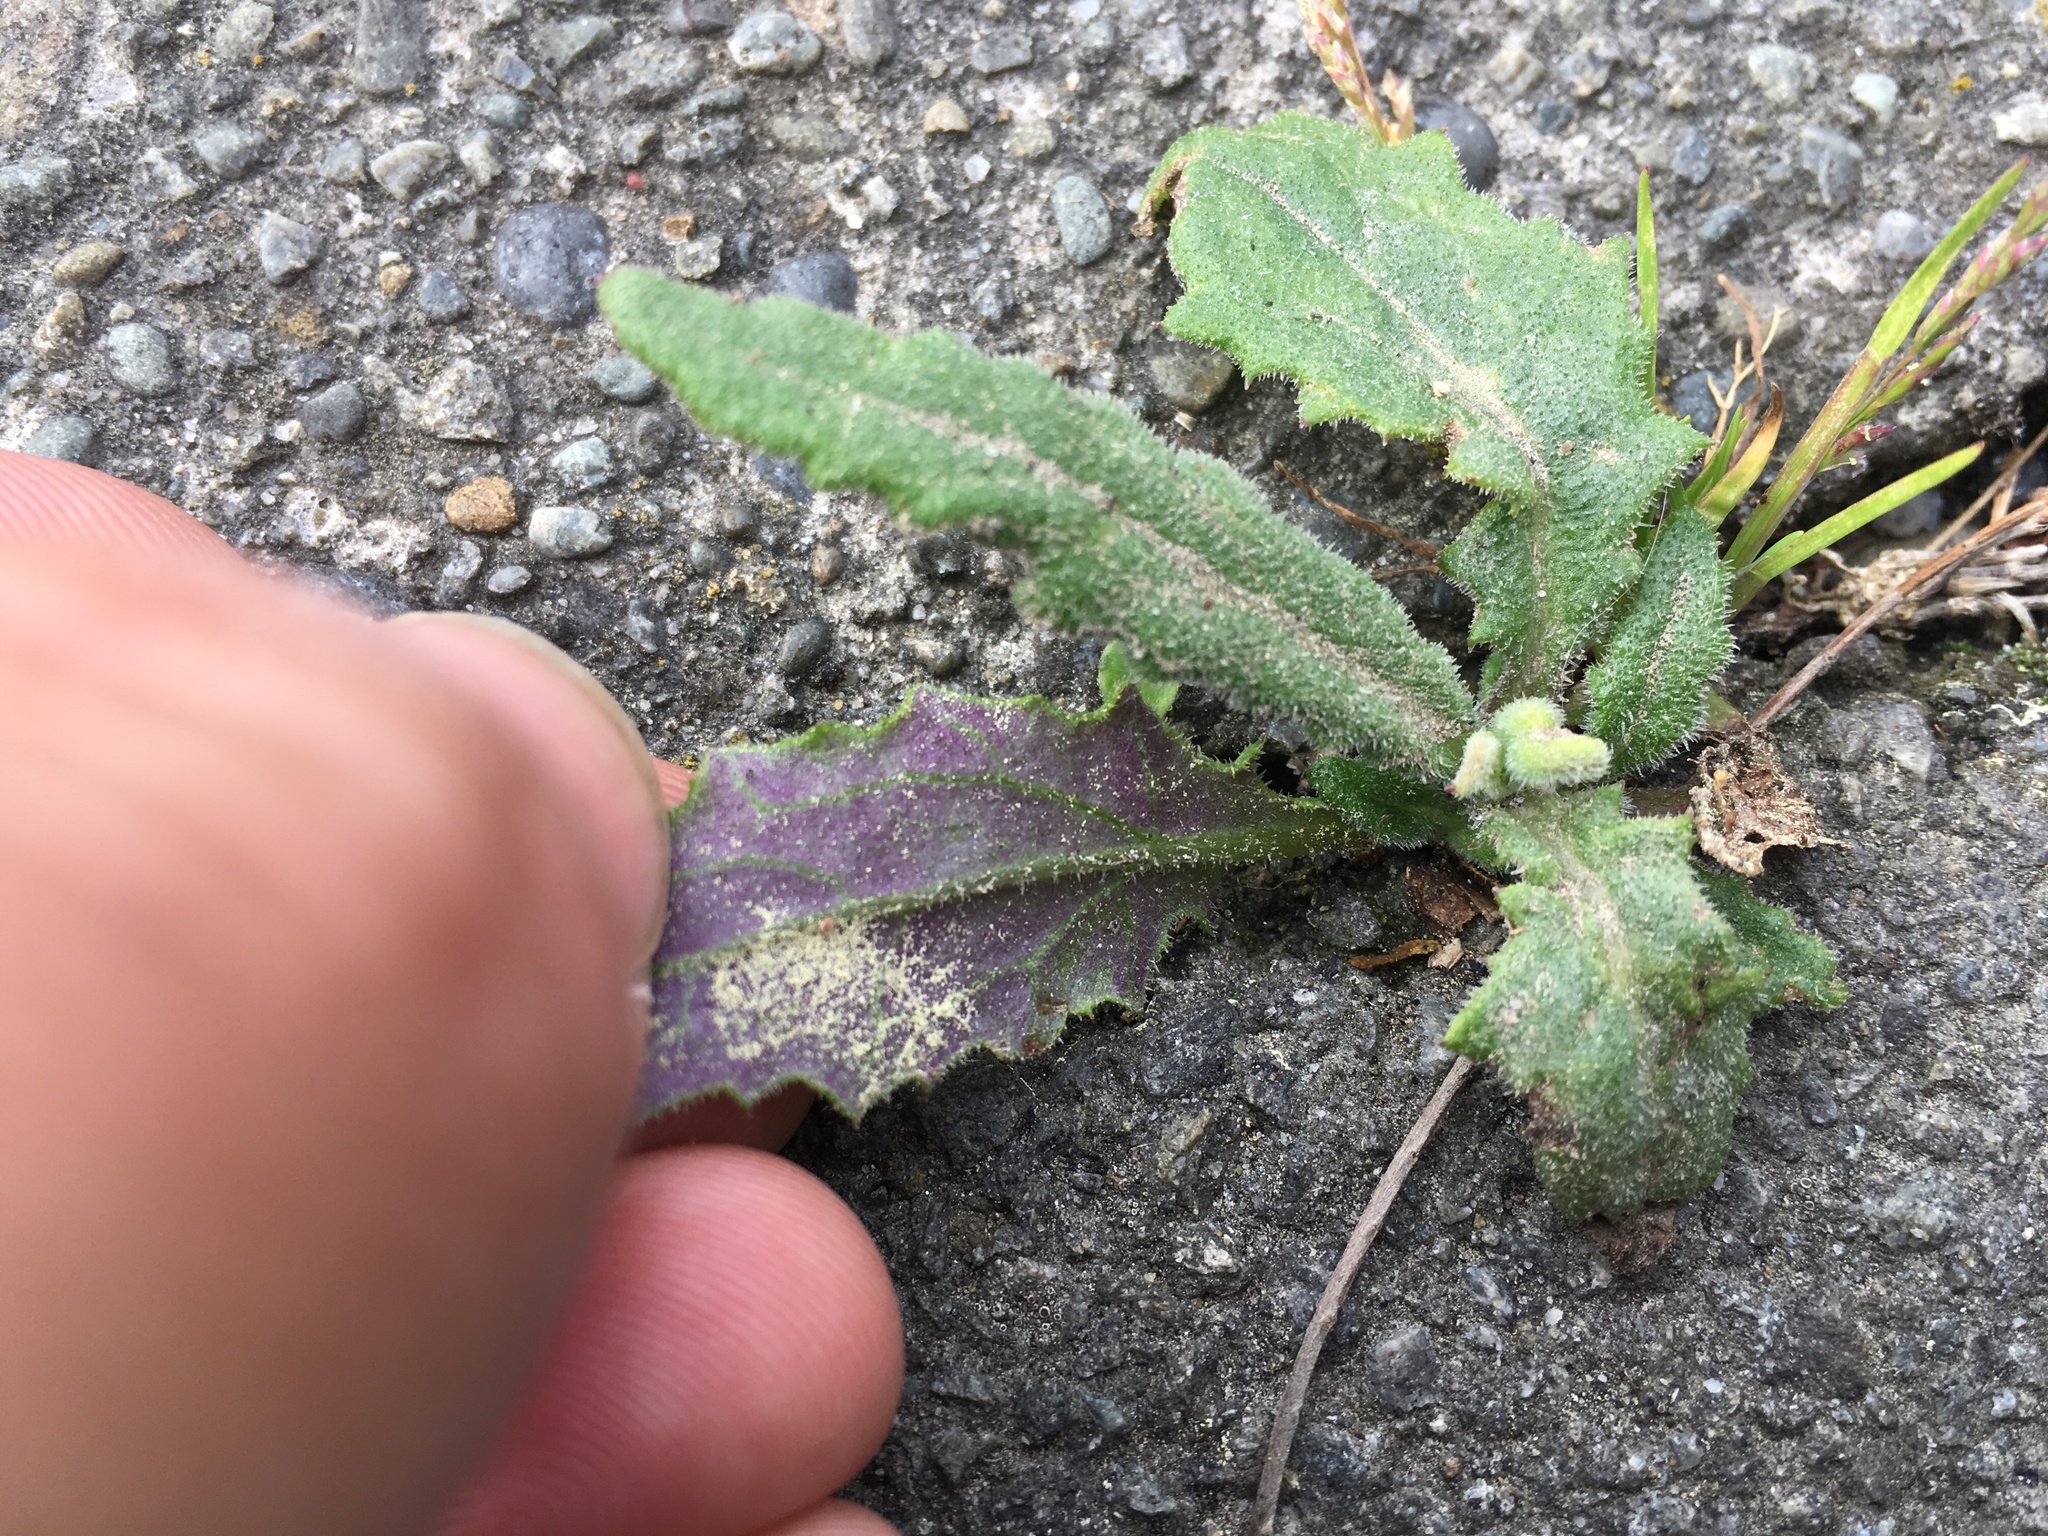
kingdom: Plantae
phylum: Tracheophyta
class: Magnoliopsida
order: Asterales
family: Asteraceae
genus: Senecio
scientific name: Senecio minimus
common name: Toothed fireweed
